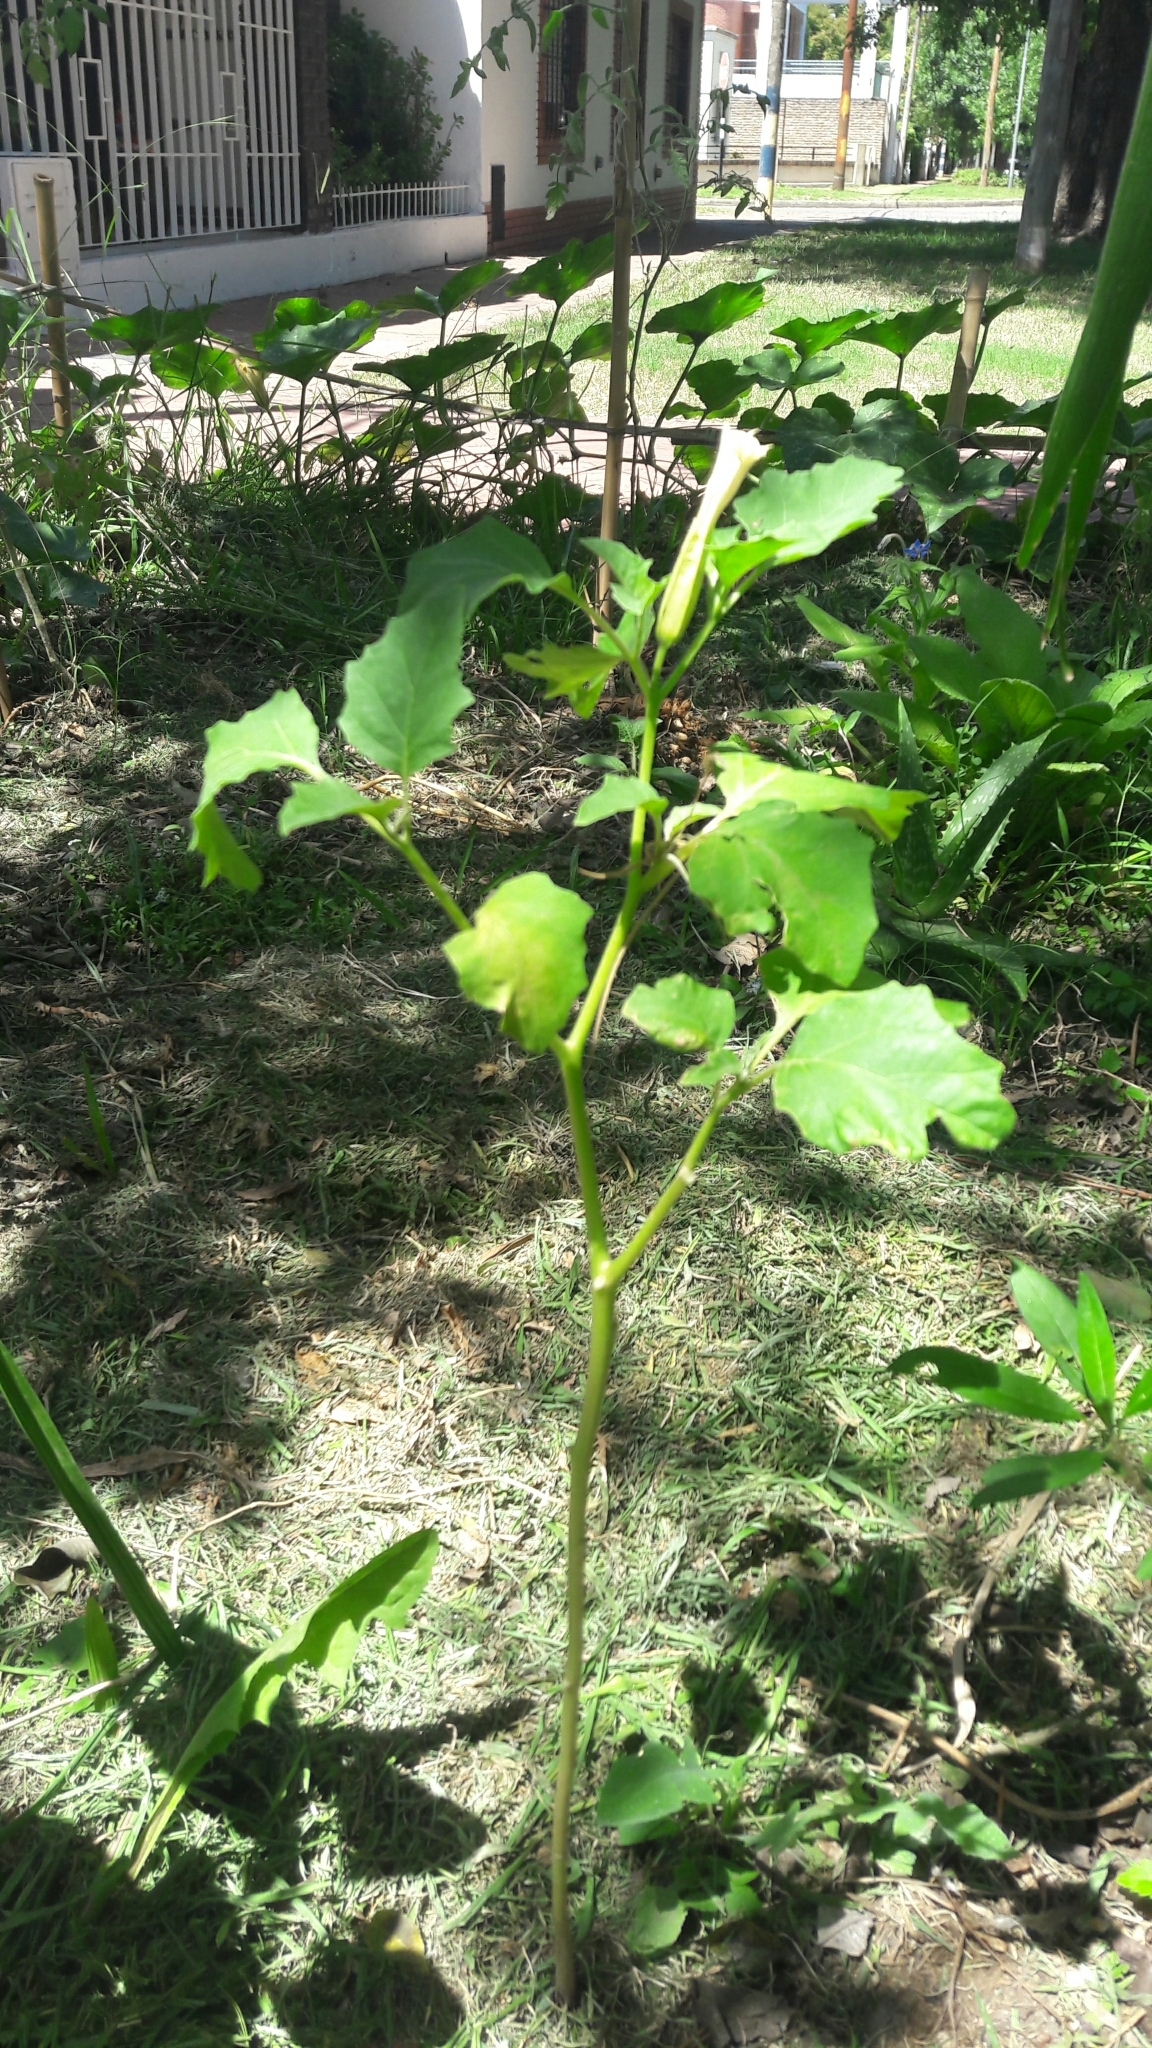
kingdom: Plantae
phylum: Tracheophyta
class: Magnoliopsida
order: Solanales
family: Solanaceae
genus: Datura
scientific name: Datura ferox
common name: Angel's-trumpets
